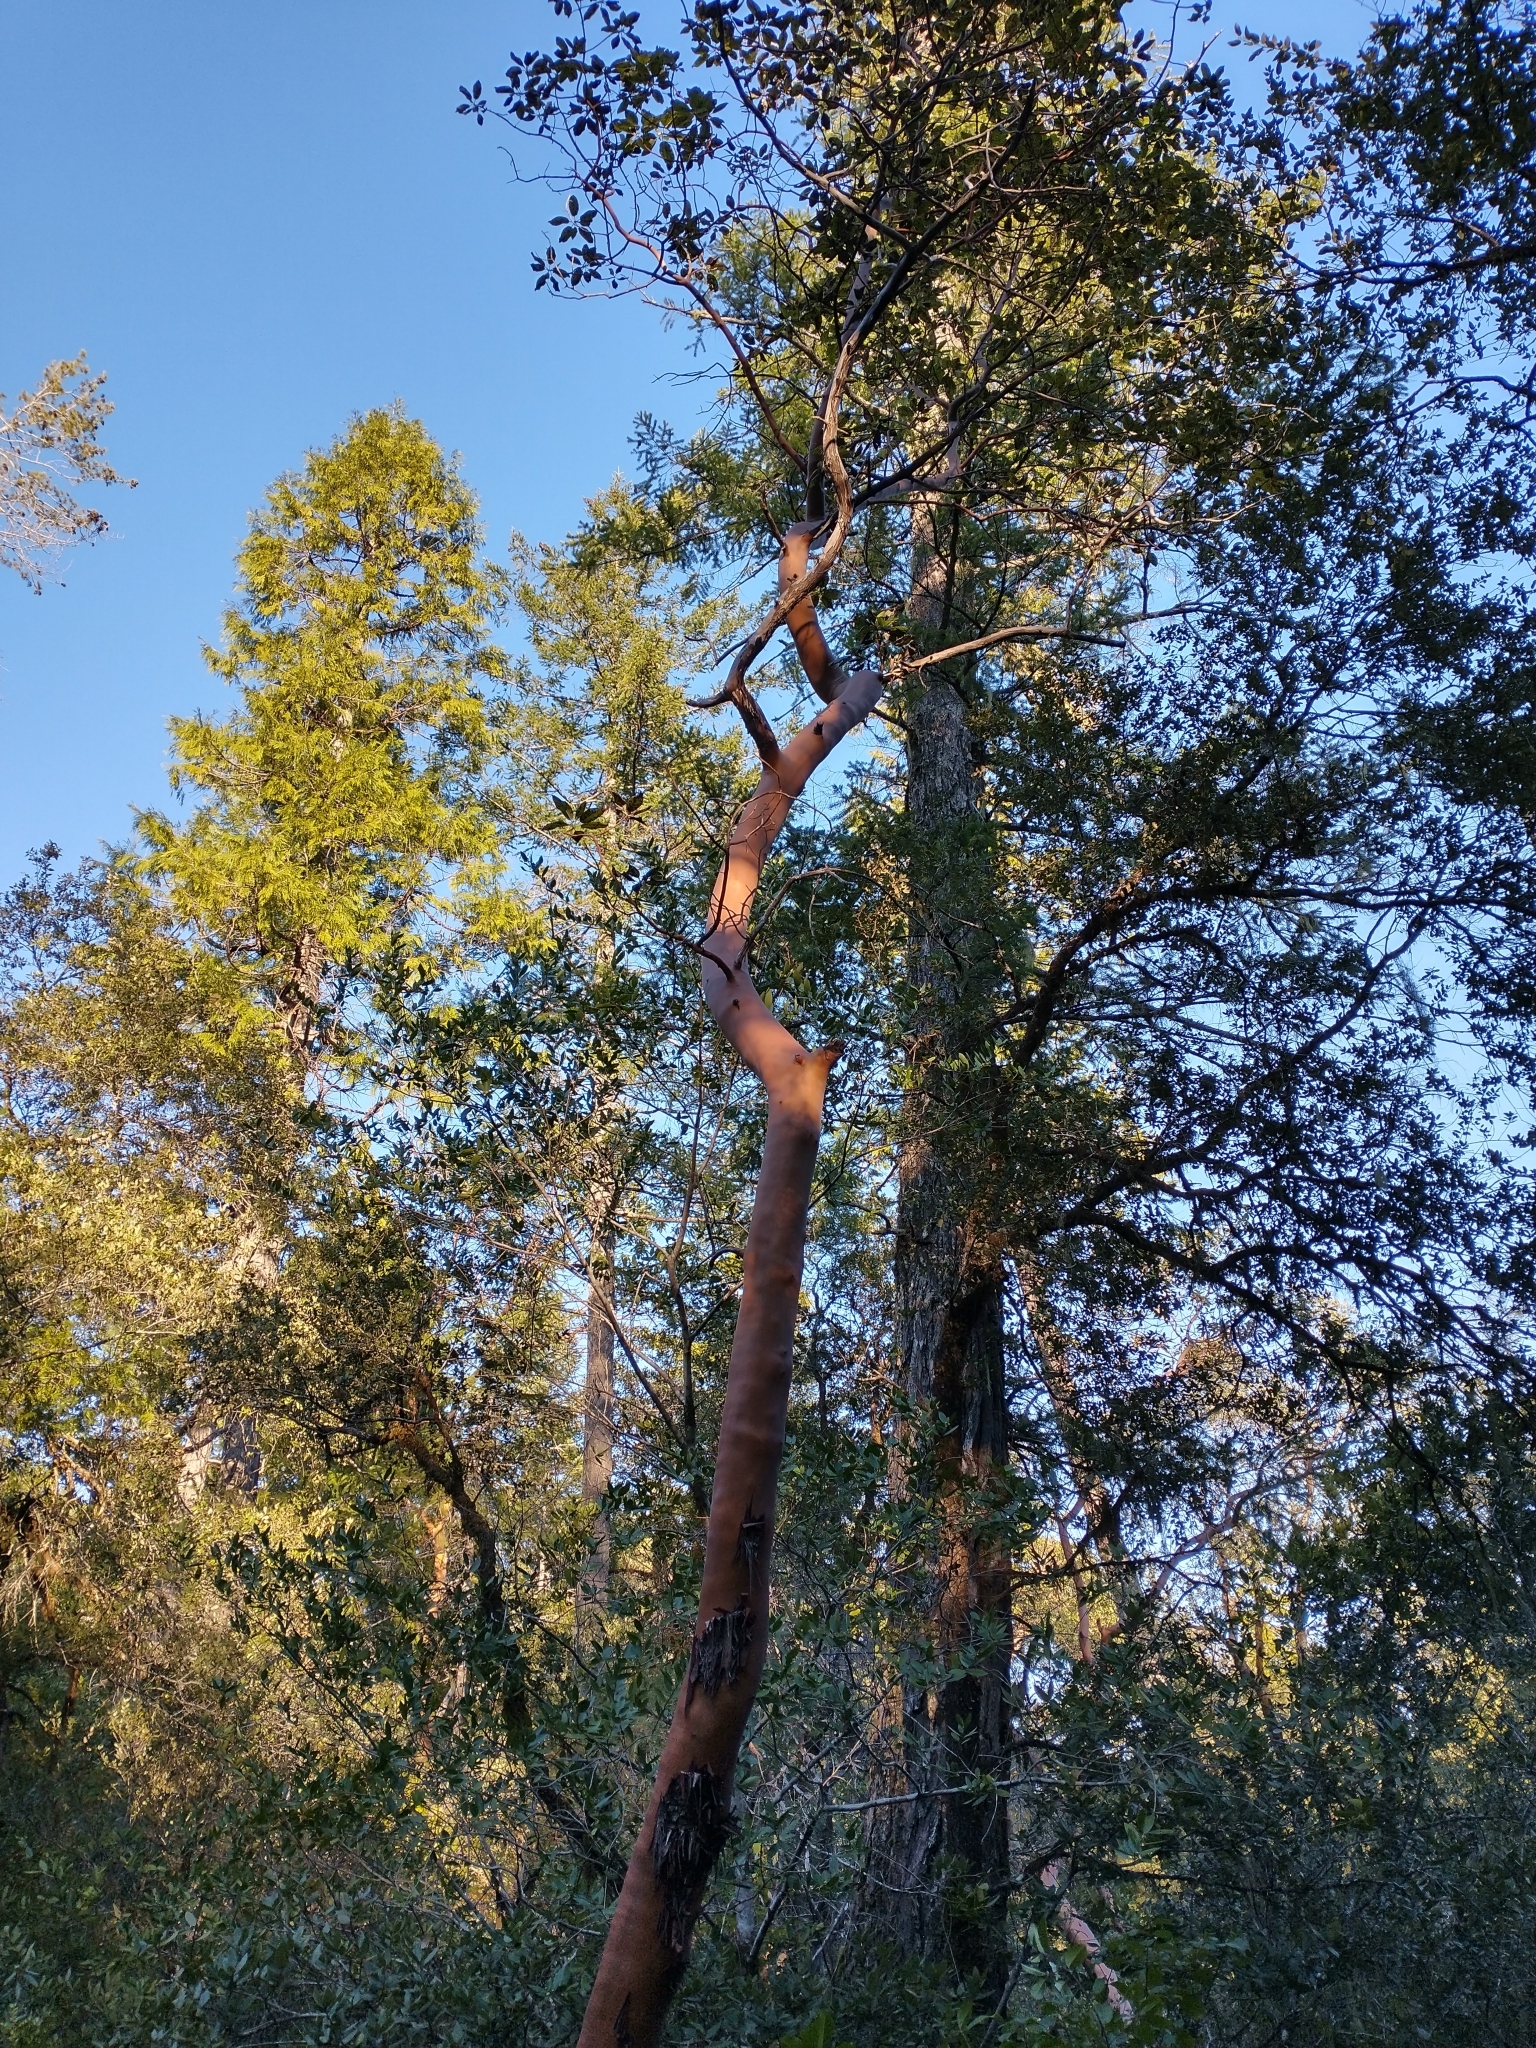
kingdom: Plantae
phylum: Tracheophyta
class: Magnoliopsida
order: Ericales
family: Ericaceae
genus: Arbutus
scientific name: Arbutus menziesii
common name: Pacific madrone
